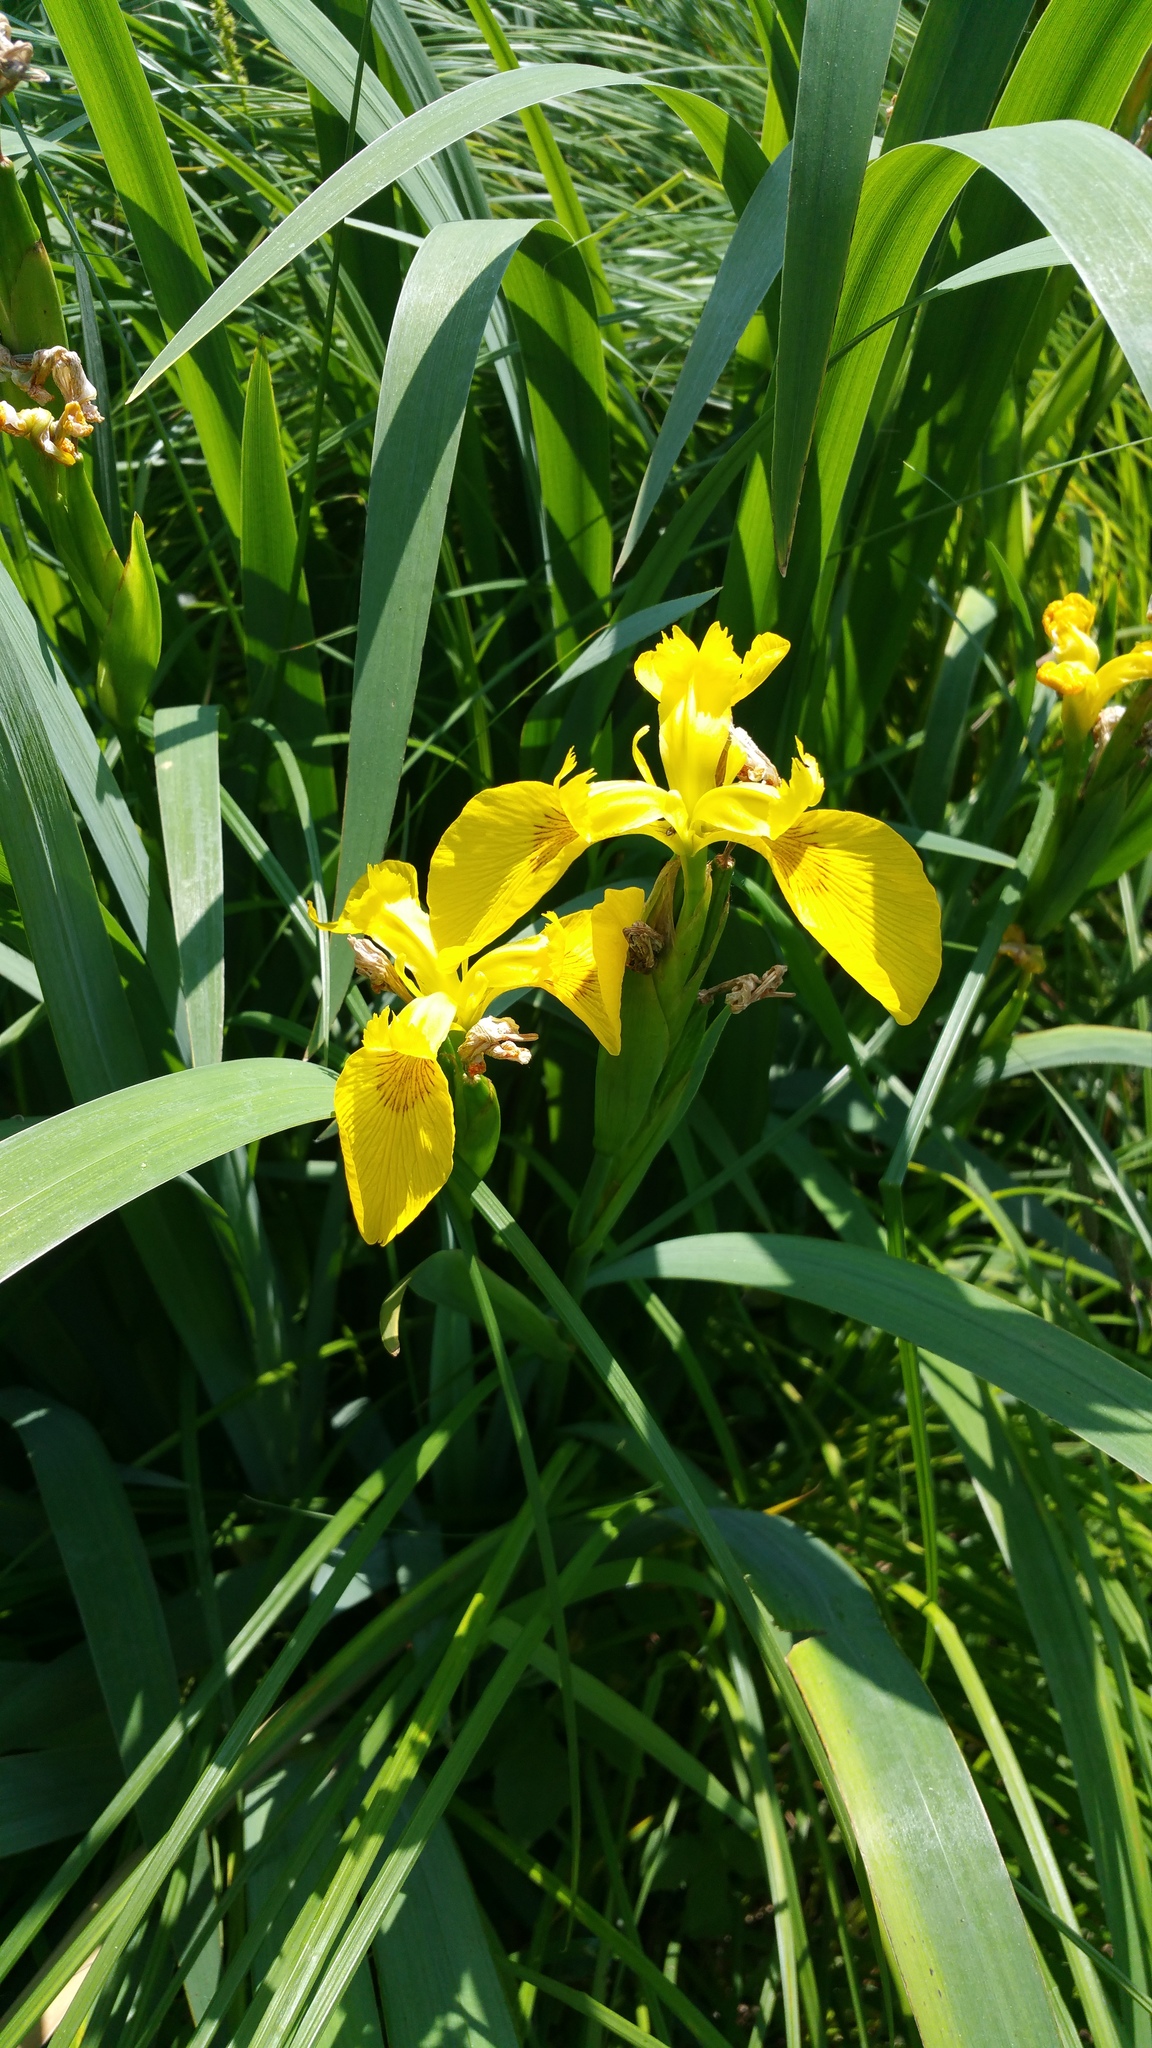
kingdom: Plantae
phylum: Tracheophyta
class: Liliopsida
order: Asparagales
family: Iridaceae
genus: Iris
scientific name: Iris pseudacorus
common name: Yellow flag
